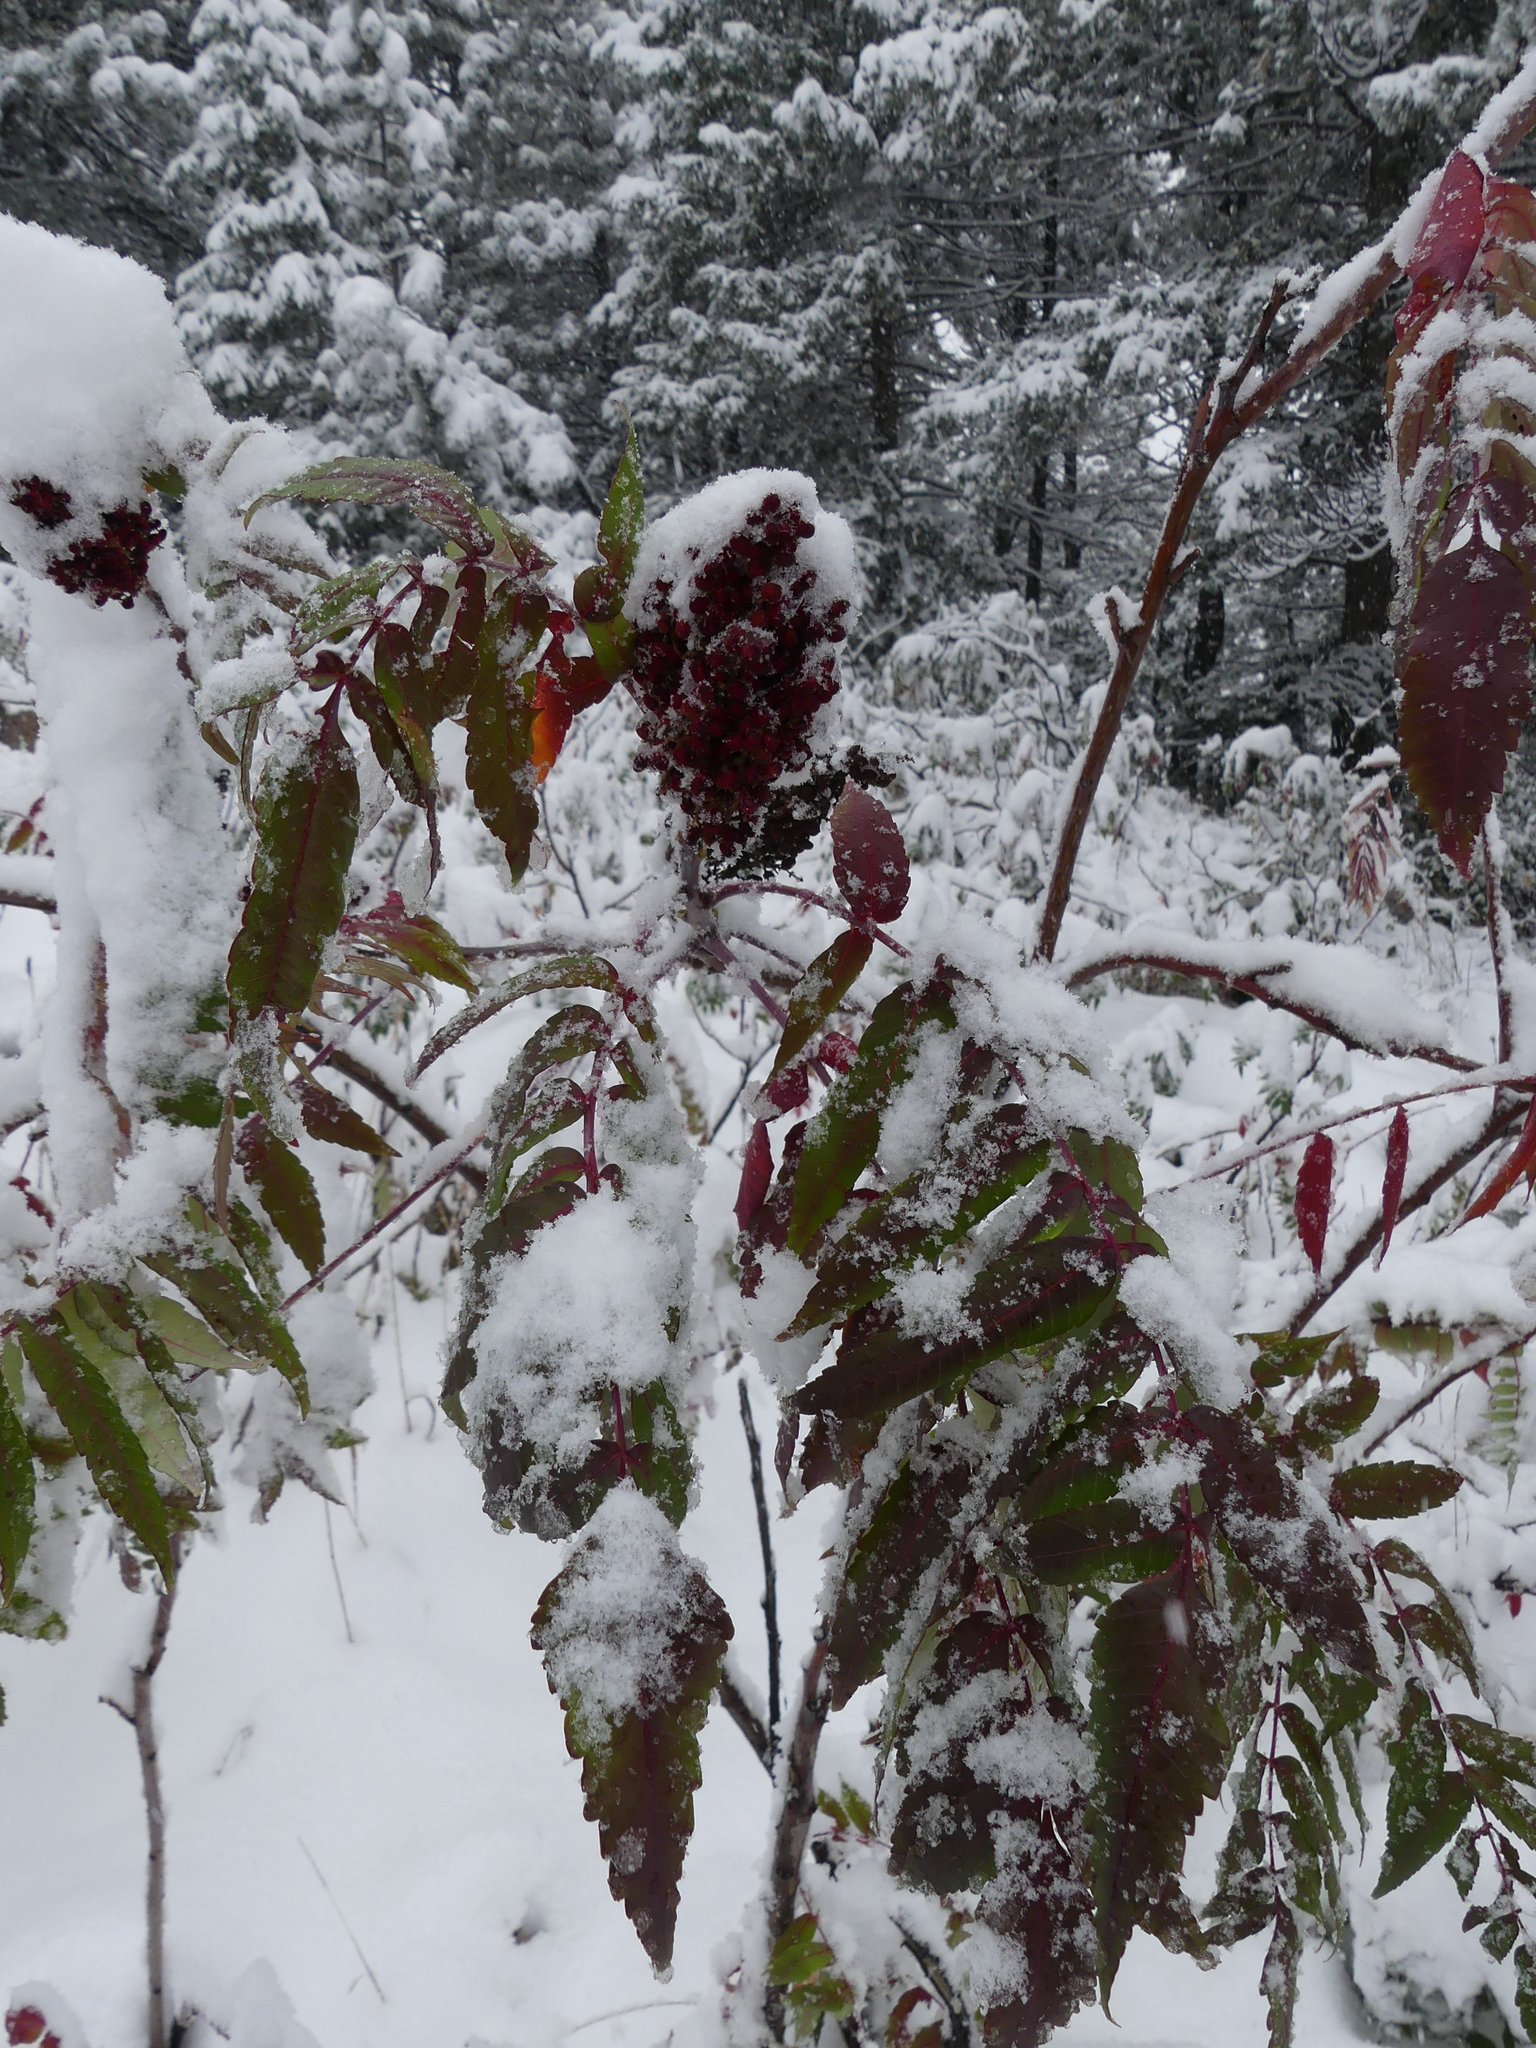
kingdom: Plantae
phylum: Tracheophyta
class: Magnoliopsida
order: Sapindales
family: Anacardiaceae
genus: Rhus
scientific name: Rhus glabra
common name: Scarlet sumac
